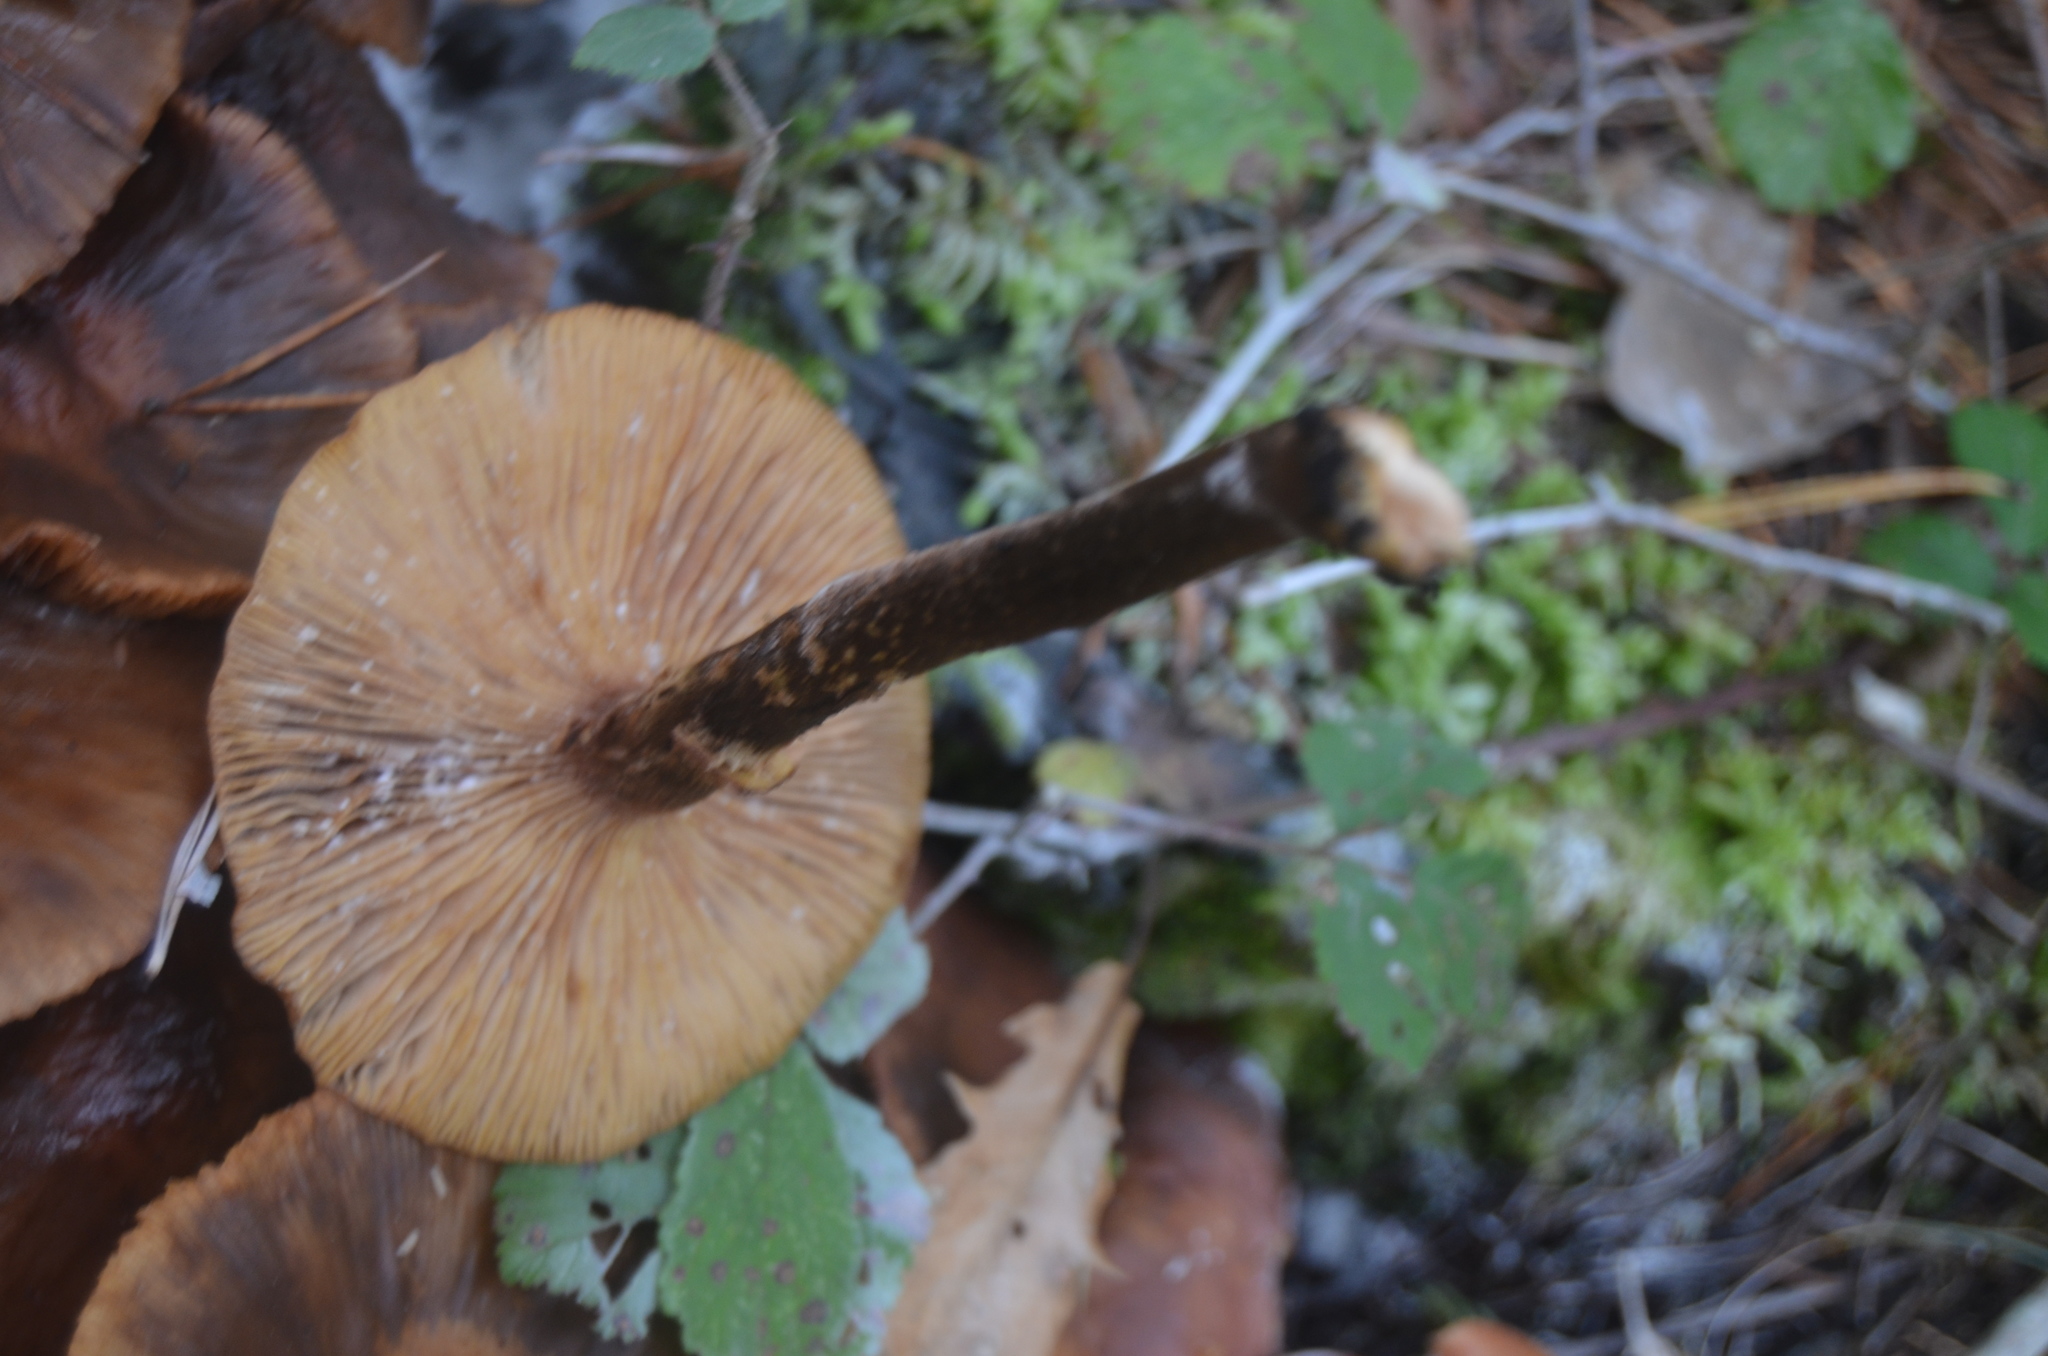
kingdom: Fungi
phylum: Basidiomycota
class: Agaricomycetes
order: Agaricales
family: Physalacriaceae
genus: Armillaria
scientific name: Armillaria mellea
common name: Honey fungus
